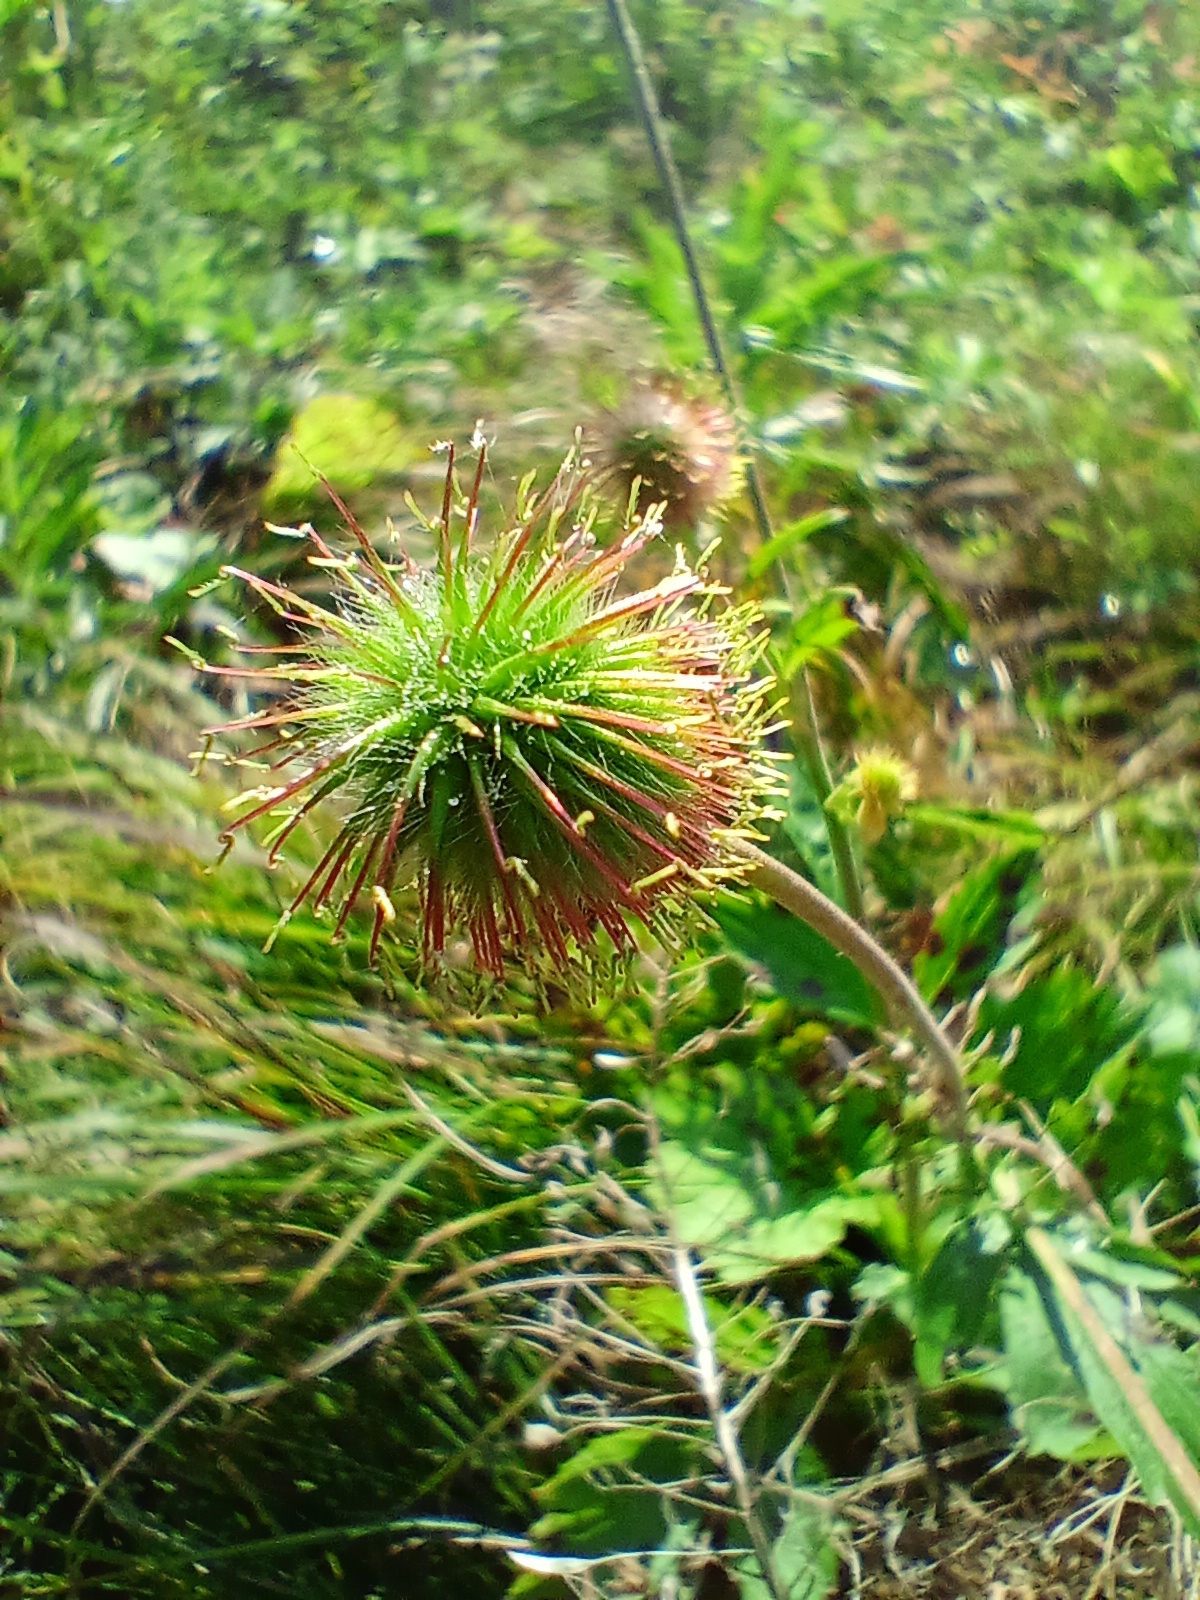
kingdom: Plantae
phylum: Tracheophyta
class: Magnoliopsida
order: Rosales
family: Rosaceae
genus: Geum
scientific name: Geum aleppicum
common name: Yellow avens
